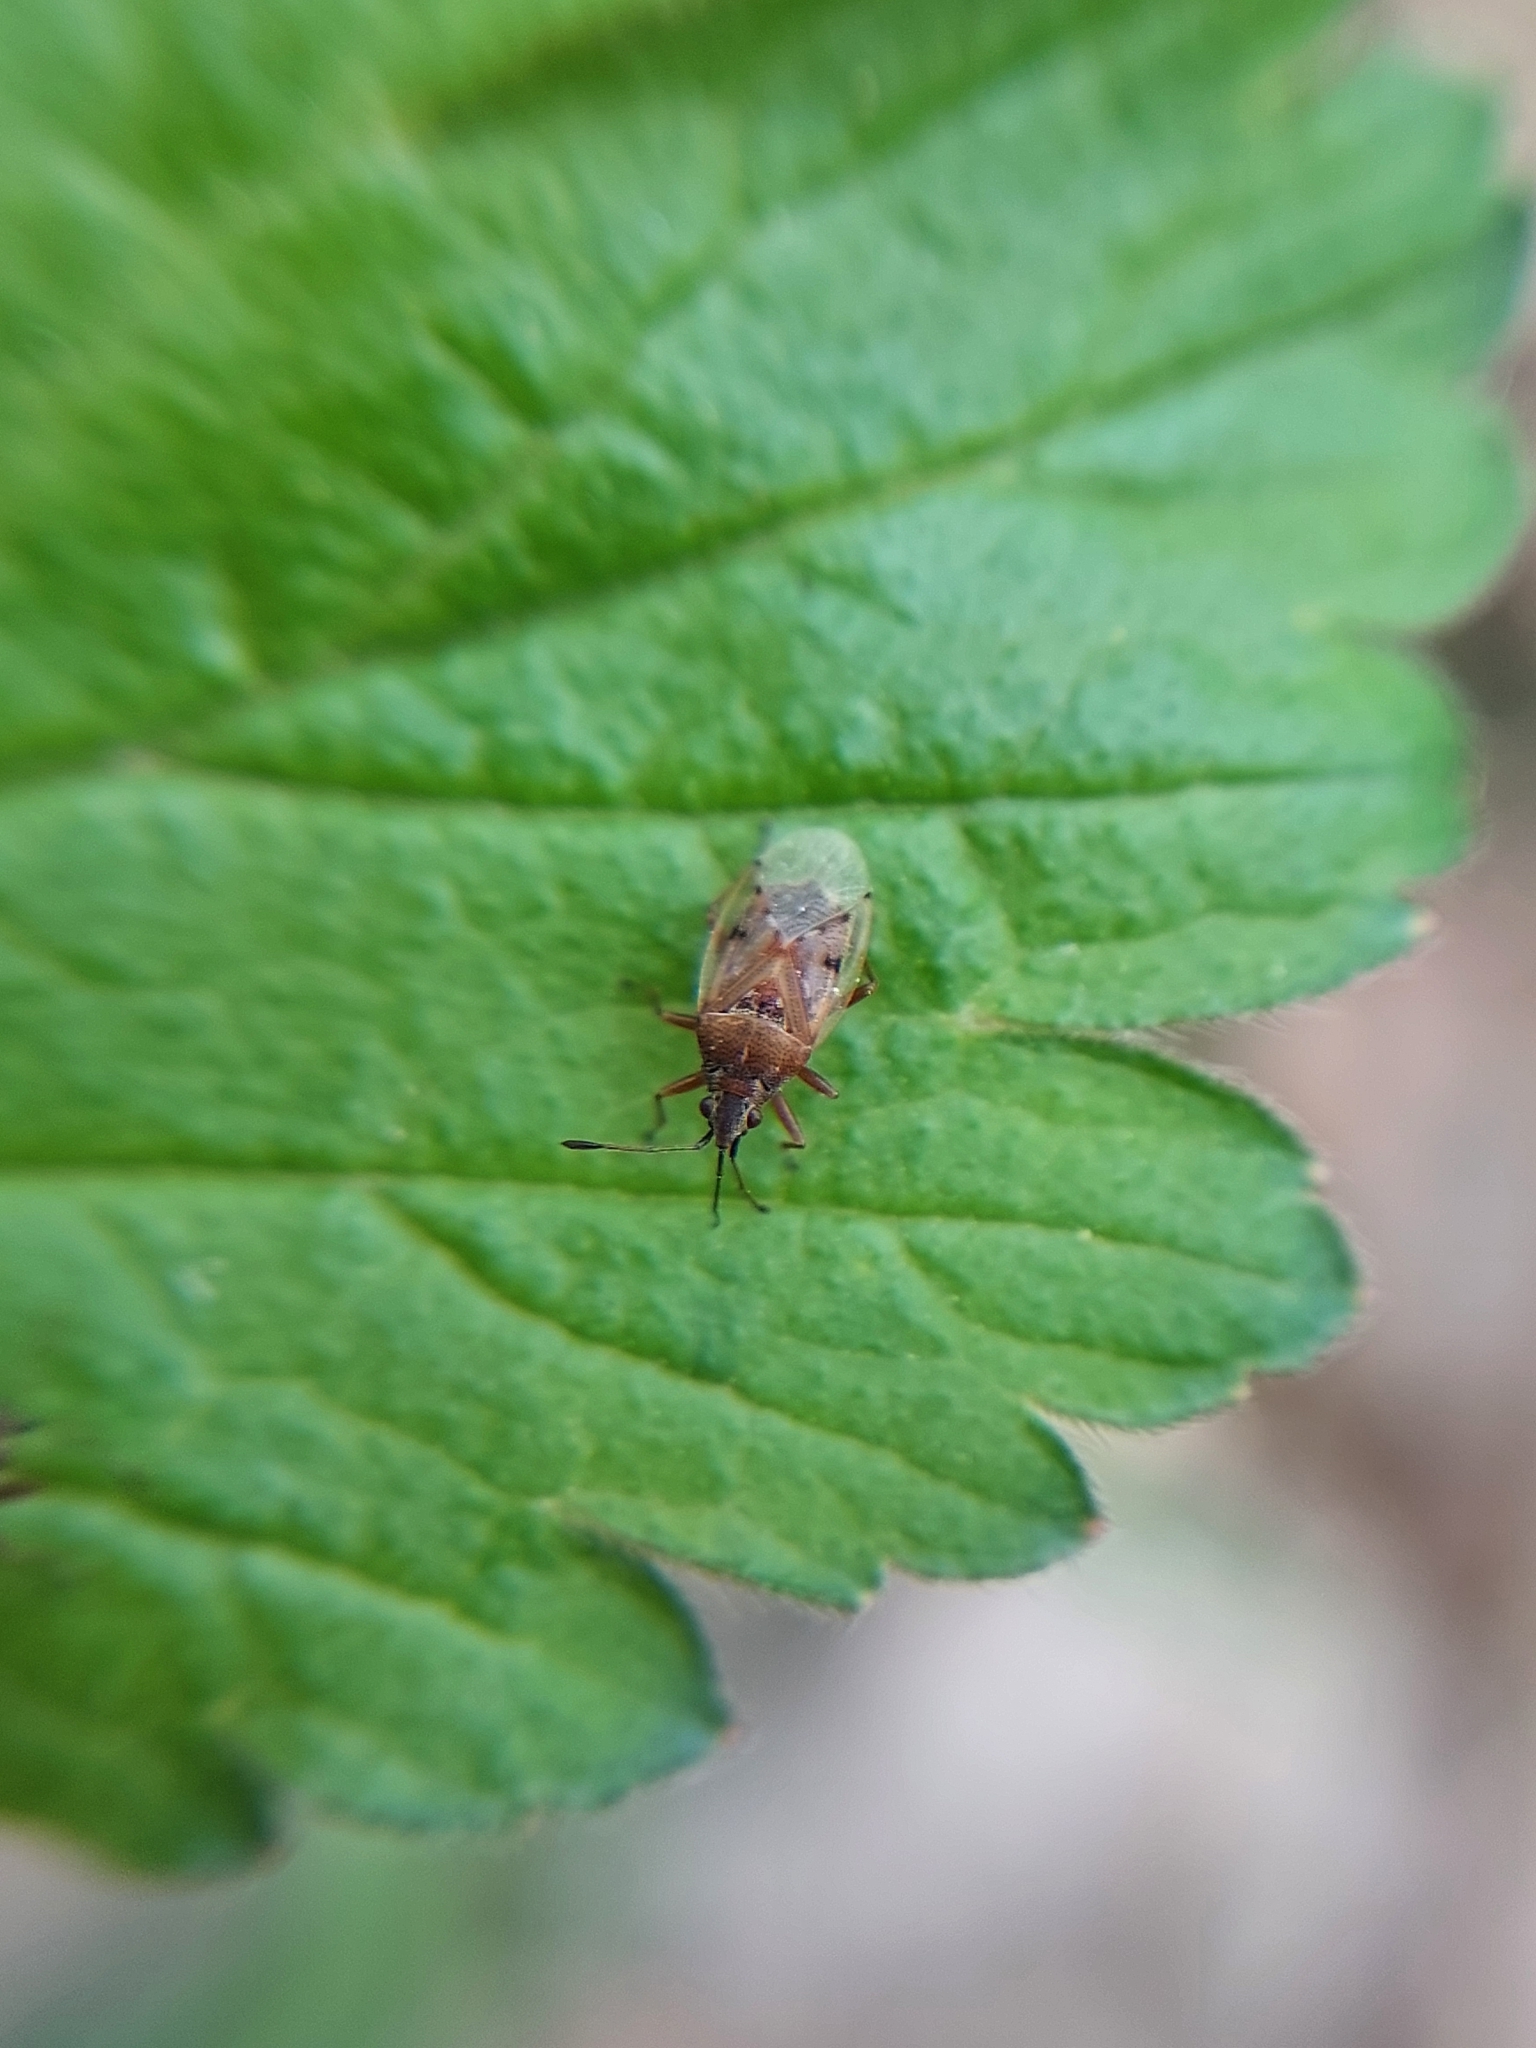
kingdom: Animalia
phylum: Arthropoda
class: Insecta
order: Hemiptera
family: Lygaeidae
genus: Kleidocerys
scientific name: Kleidocerys resedae
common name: Birch catkin bug
